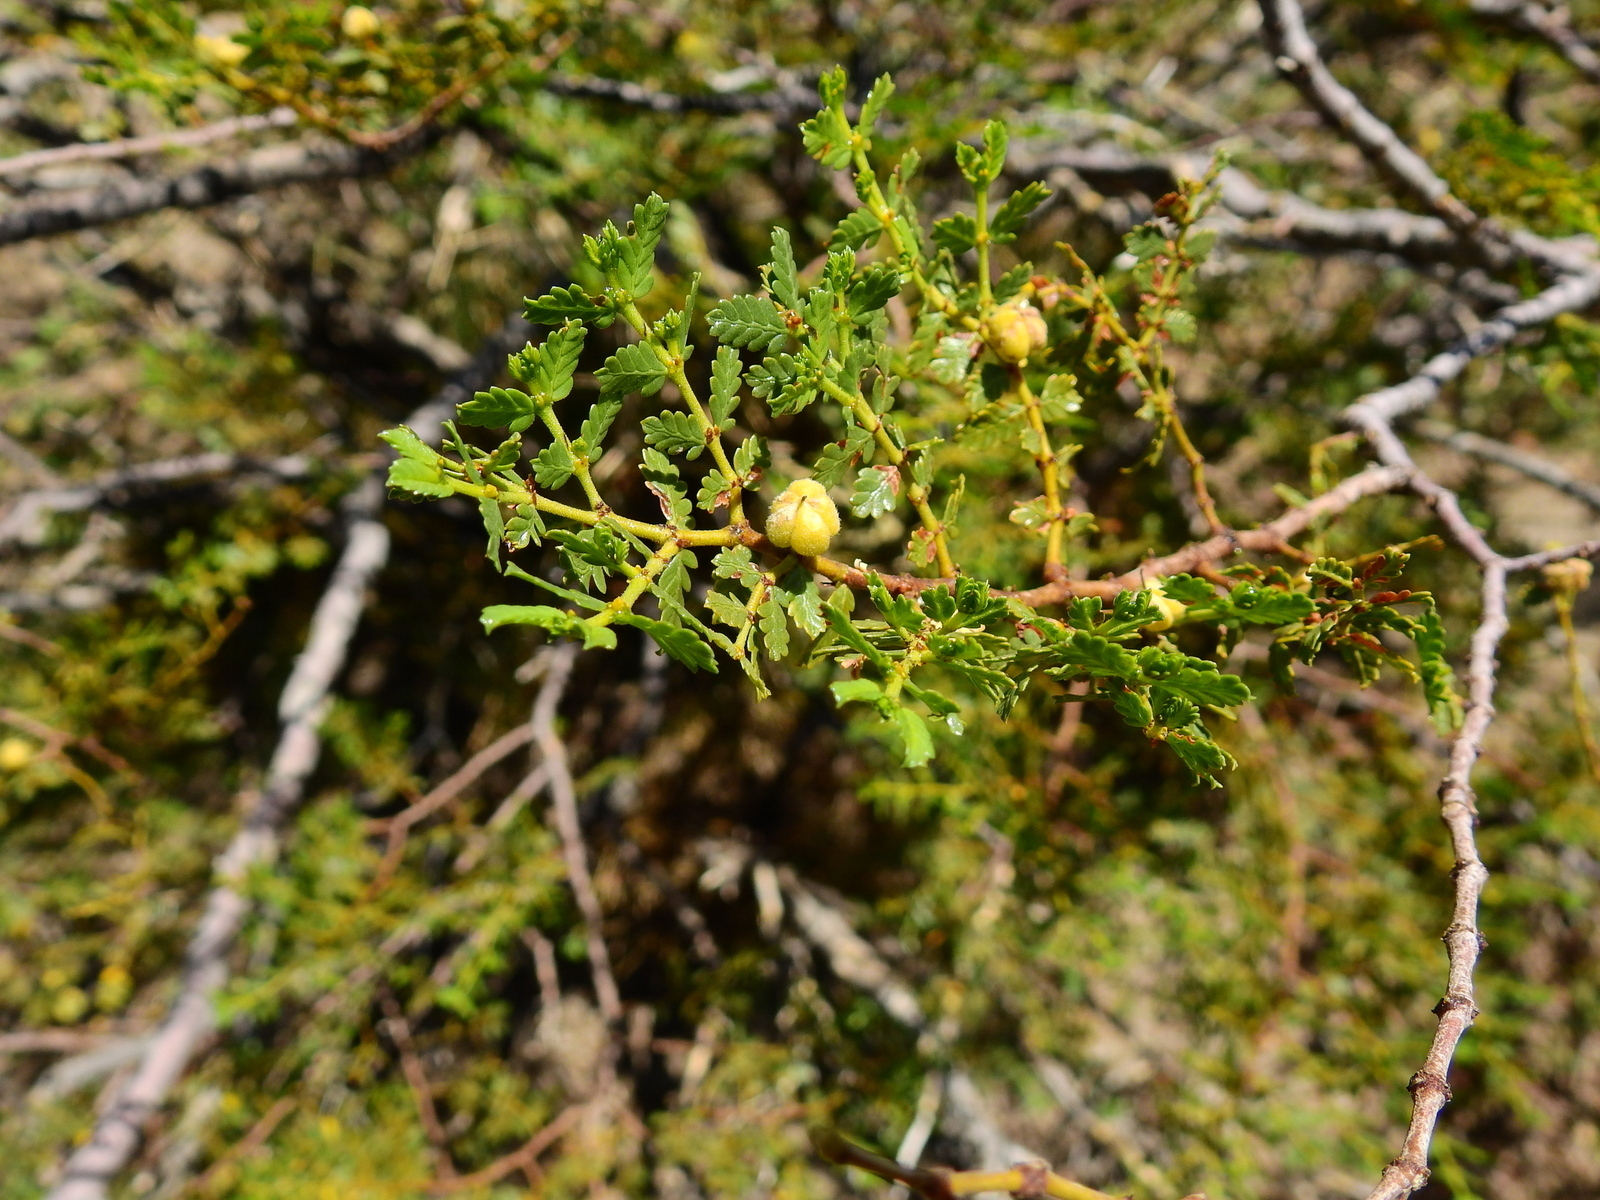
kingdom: Plantae
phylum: Tracheophyta
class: Magnoliopsida
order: Zygophyllales
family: Zygophyllaceae
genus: Larrea
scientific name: Larrea nitida
